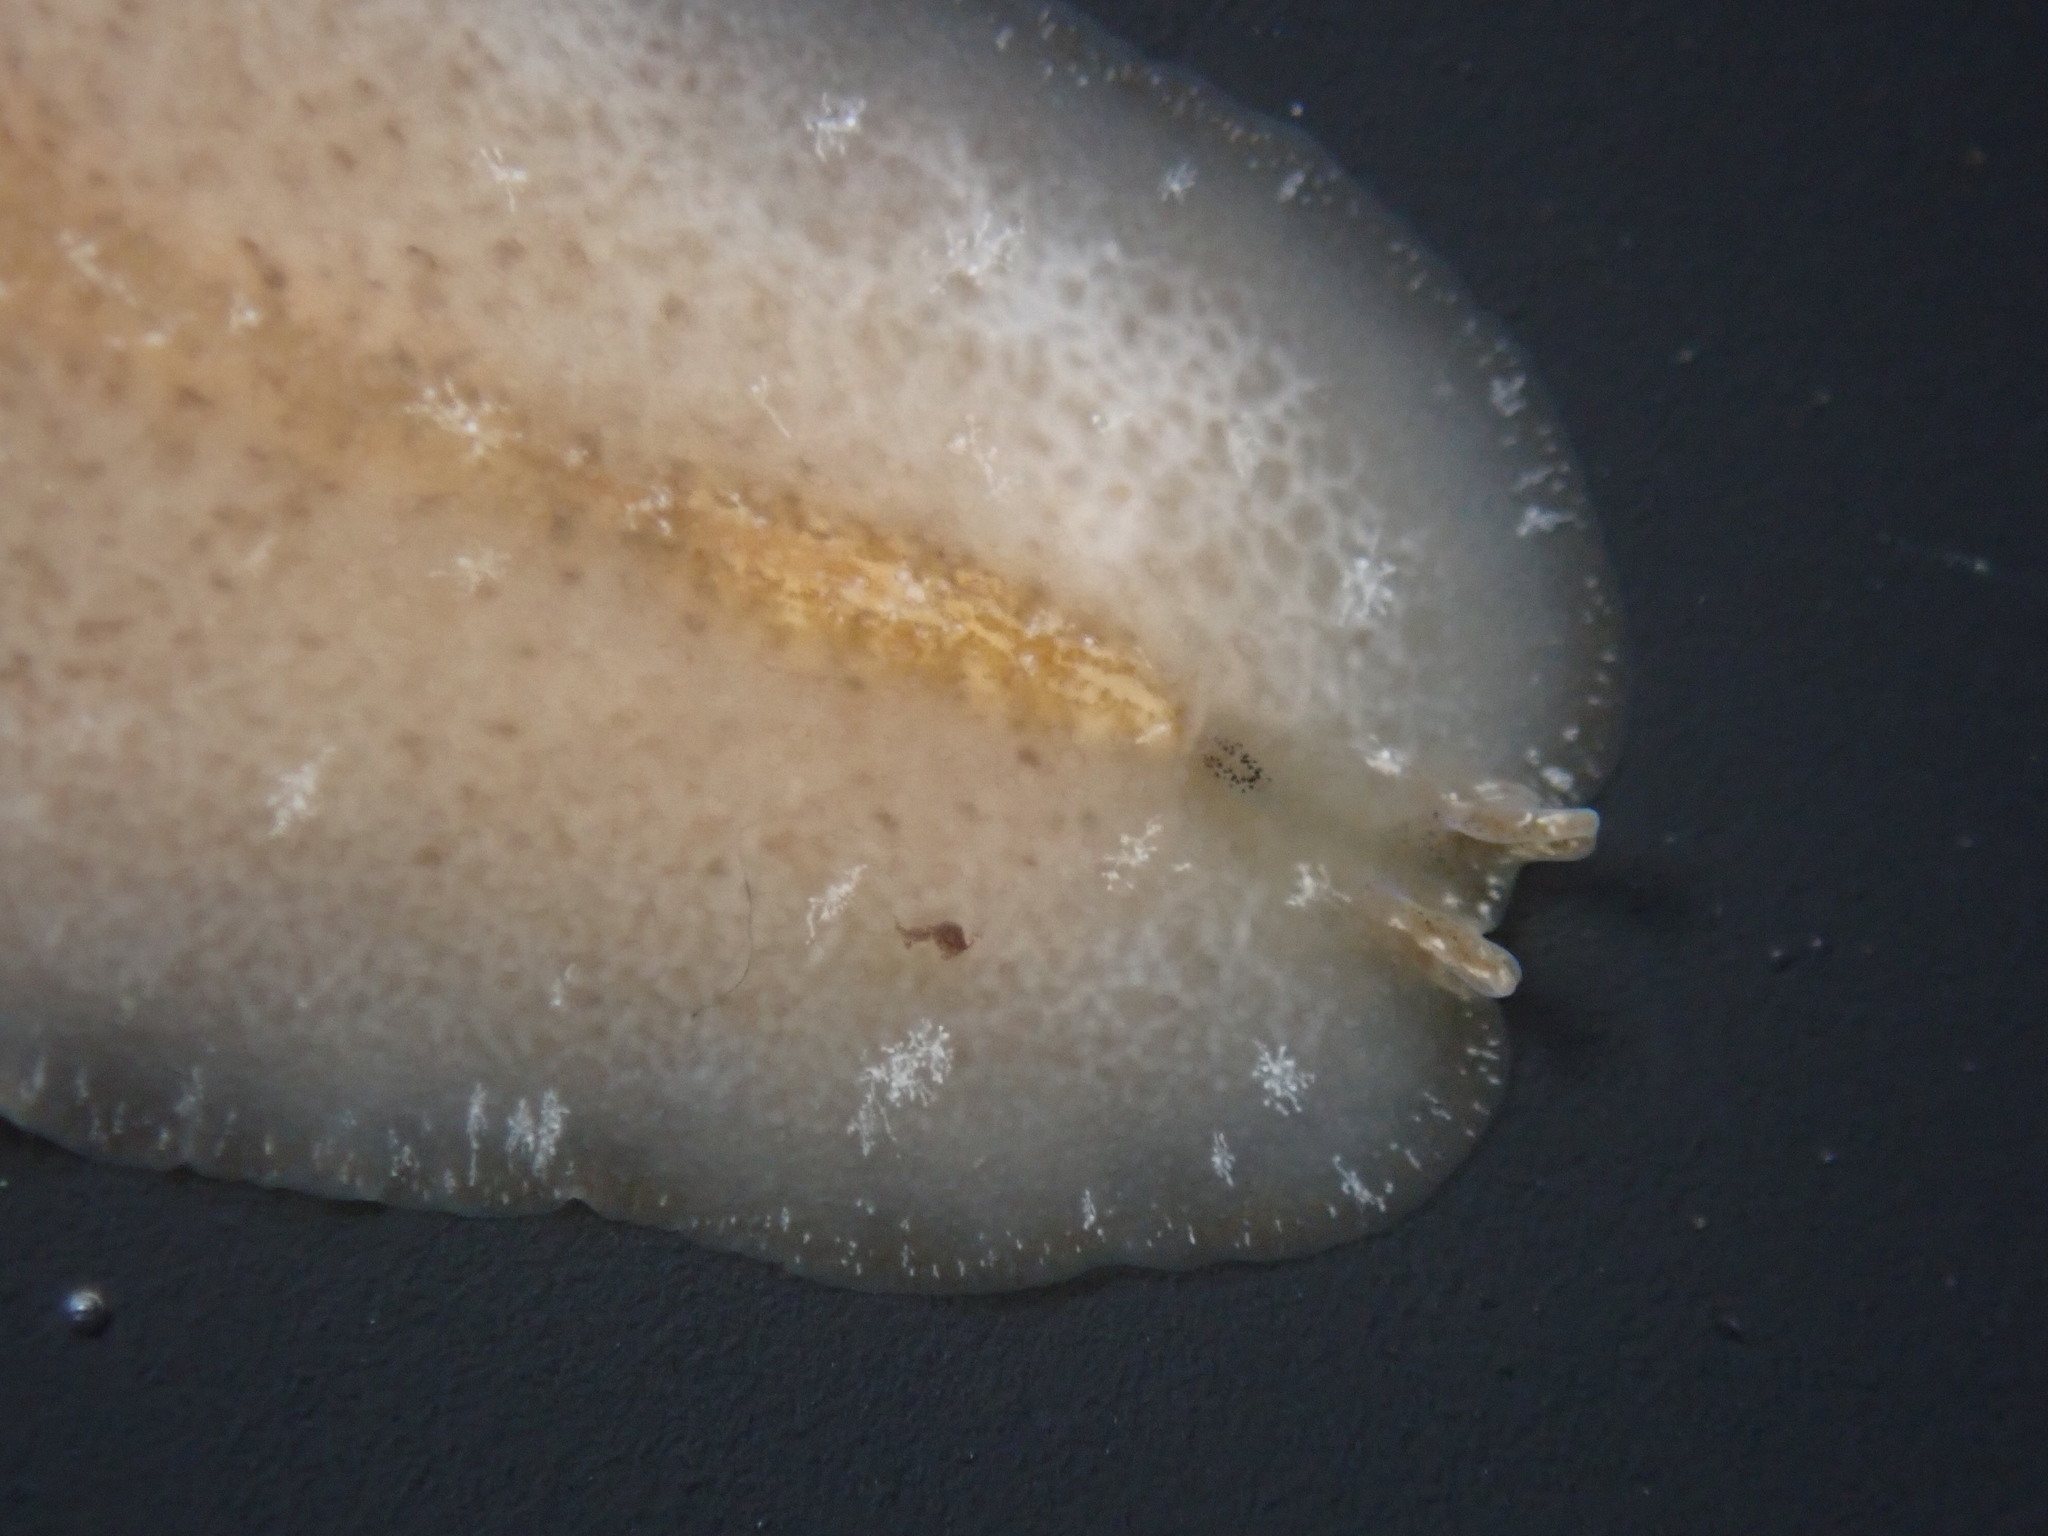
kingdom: Animalia
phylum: Platyhelminthes
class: Turbellaria
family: Pseudocerotidae
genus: Pseudoceros
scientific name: Pseudoceros canadensis
